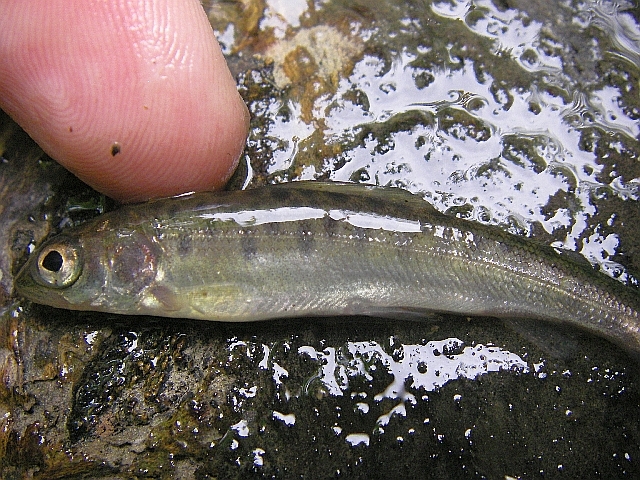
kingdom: Animalia
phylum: Chordata
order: Salmoniformes
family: Salmonidae
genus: Thymallus
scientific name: Thymallus thymallus
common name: Grayling
